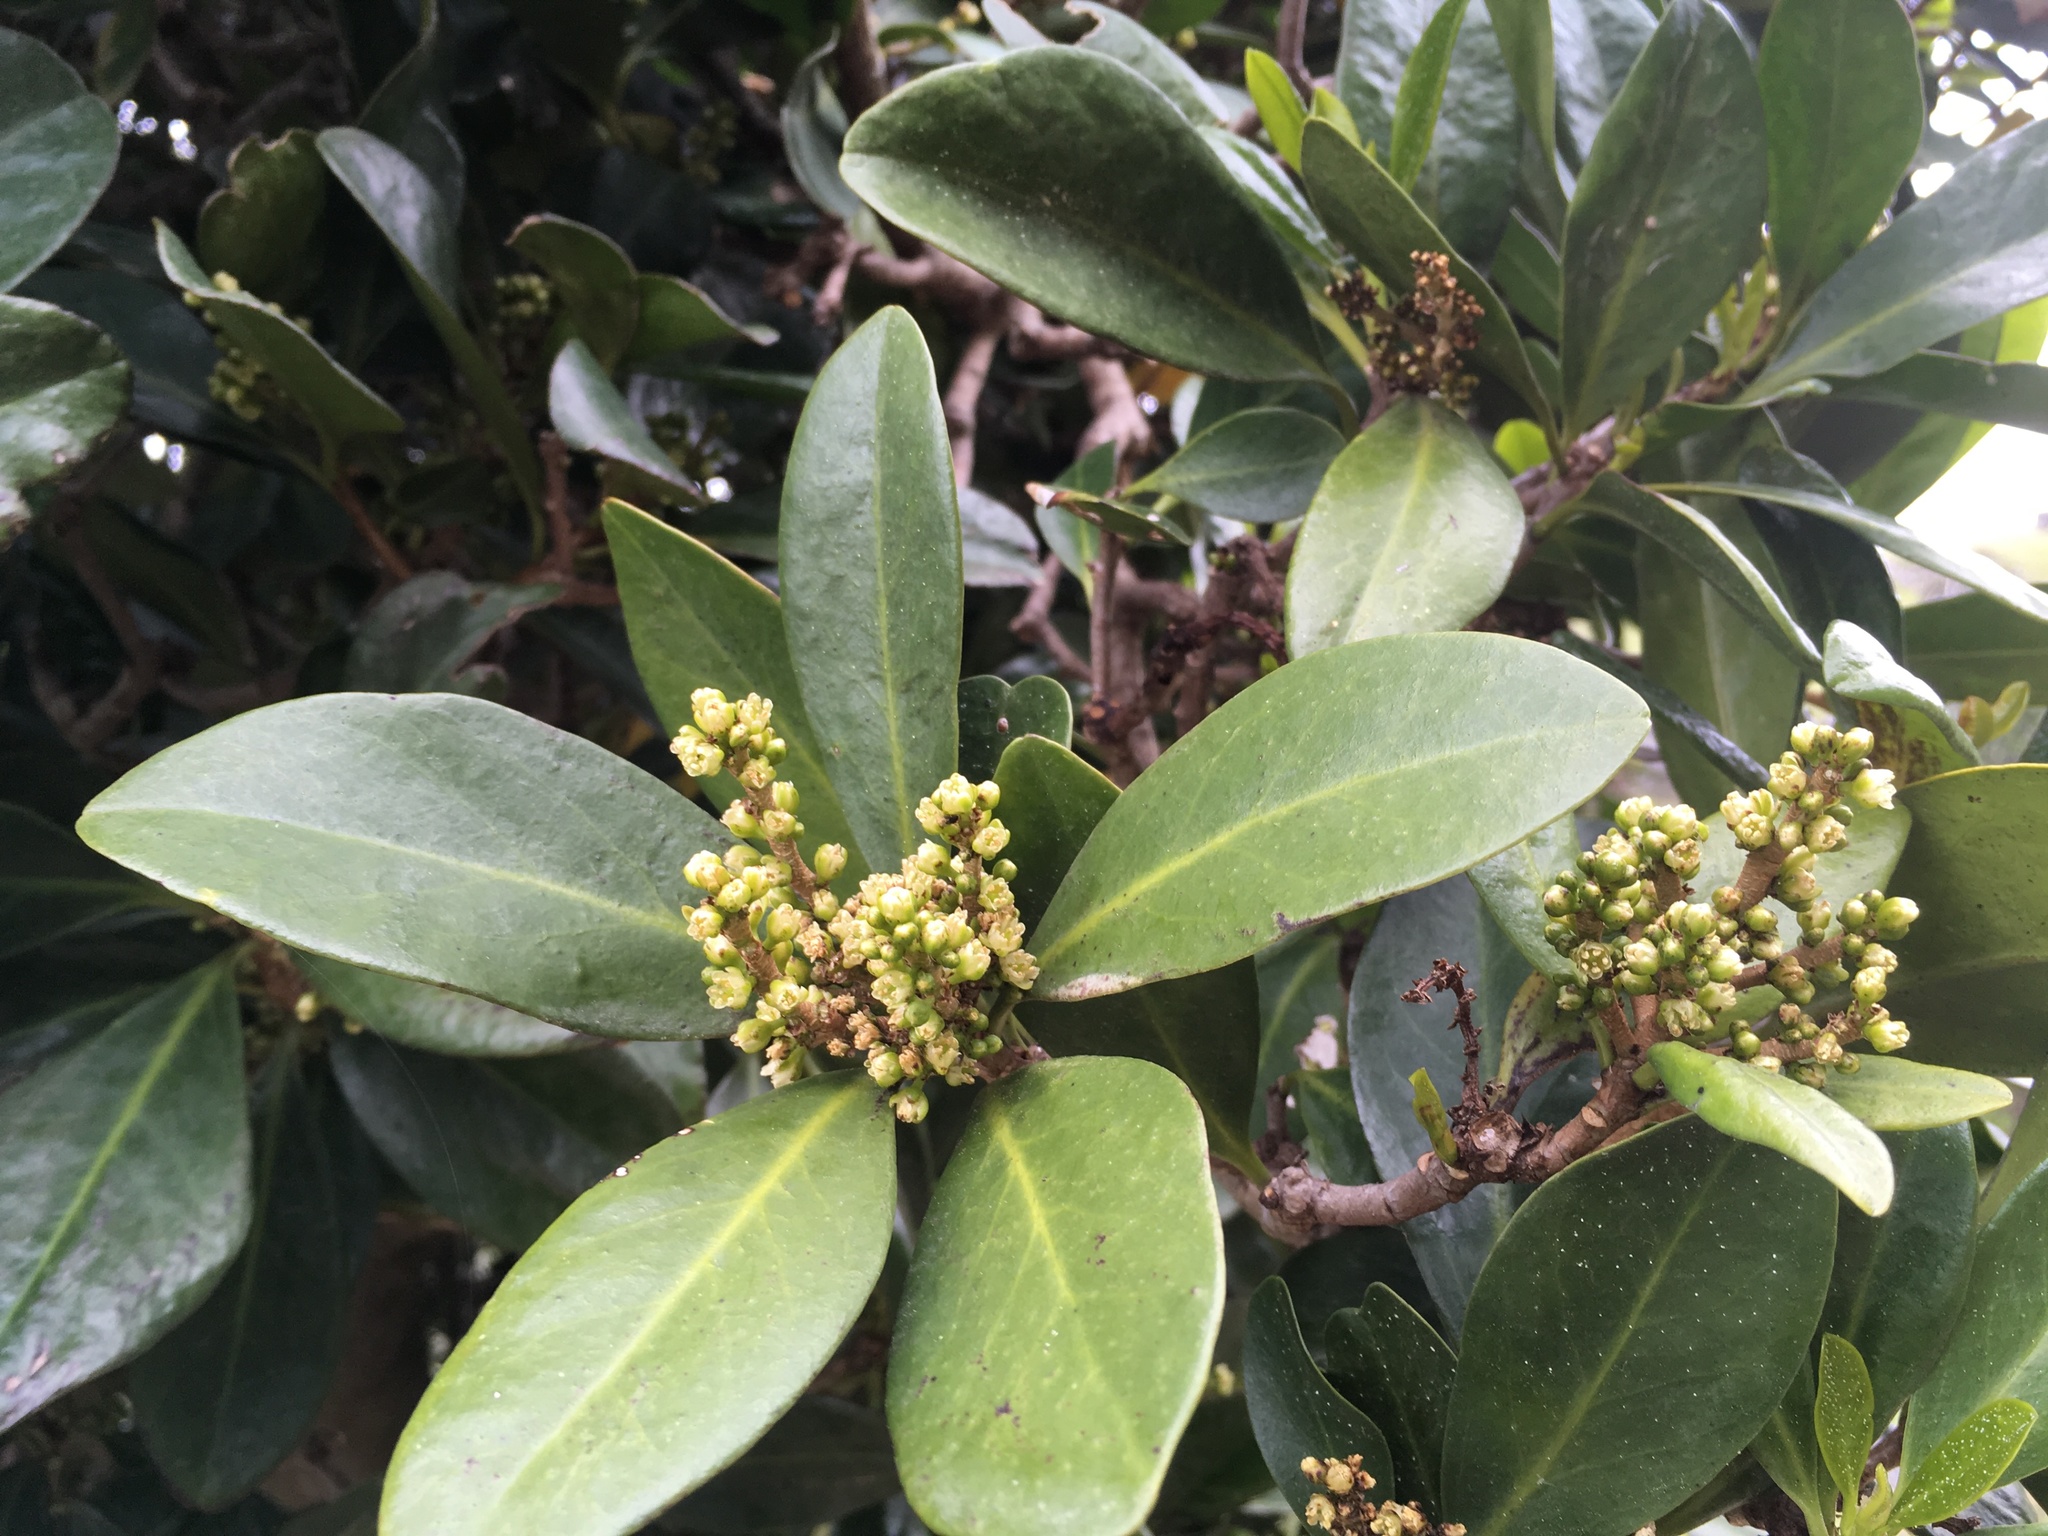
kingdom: Plantae
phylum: Tracheophyta
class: Magnoliopsida
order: Cucurbitales
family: Corynocarpaceae
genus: Corynocarpus
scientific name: Corynocarpus laevigatus
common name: New zealand laurel
